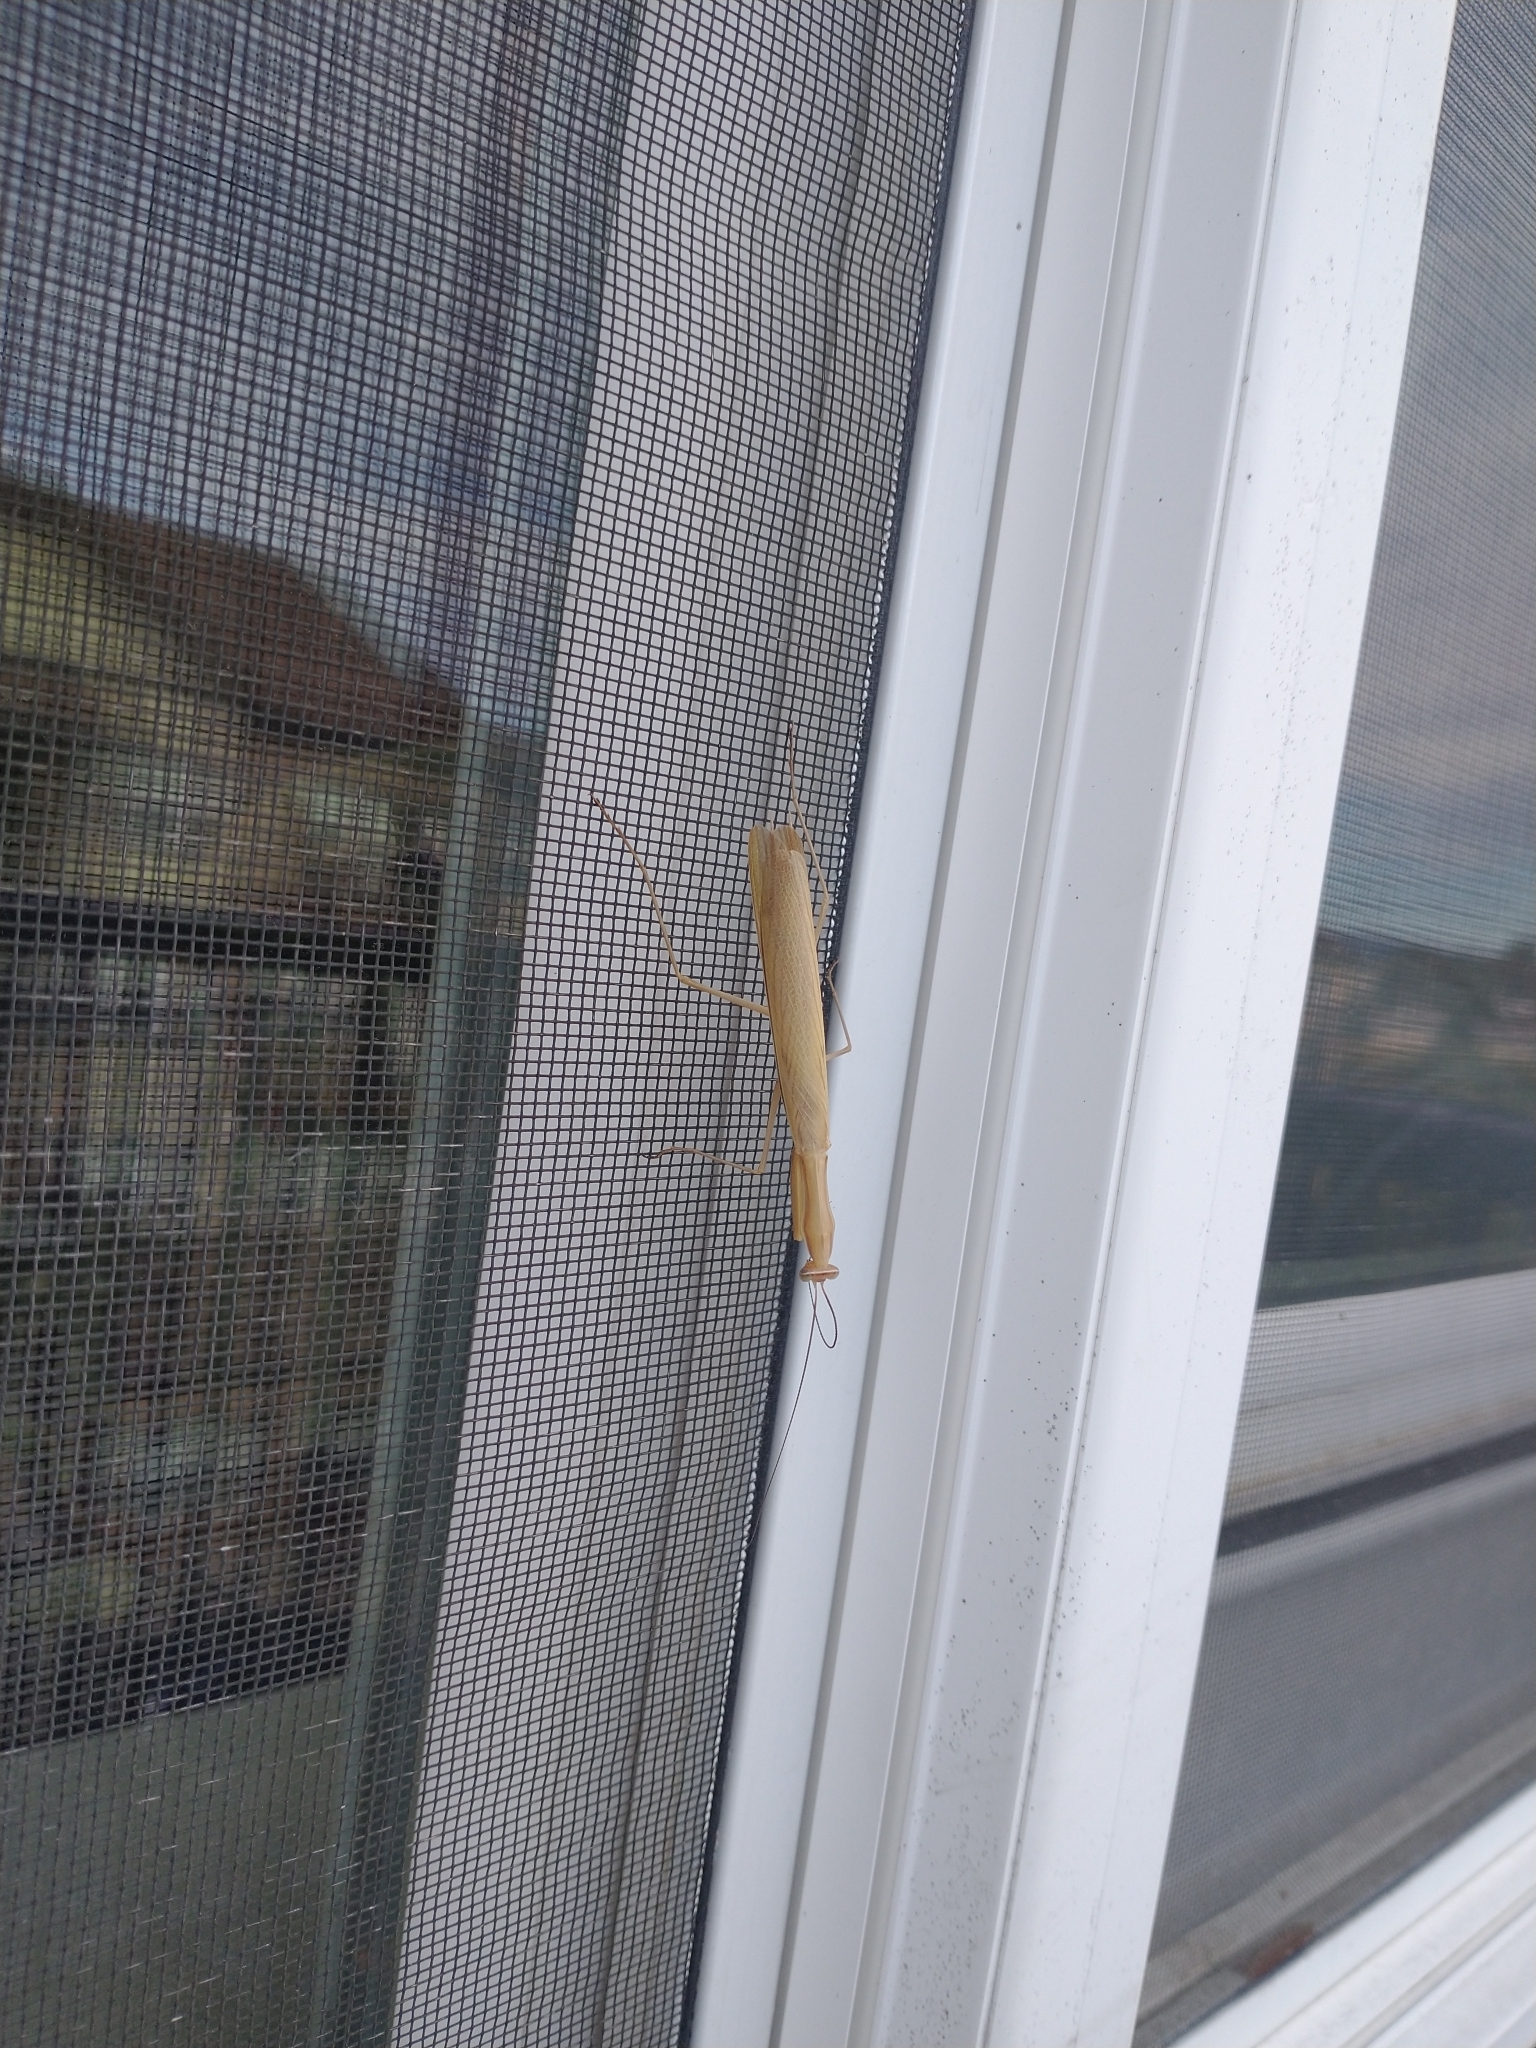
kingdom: Animalia
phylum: Arthropoda
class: Insecta
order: Mantodea
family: Mantidae
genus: Mantis
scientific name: Mantis religiosa
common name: Praying mantis
